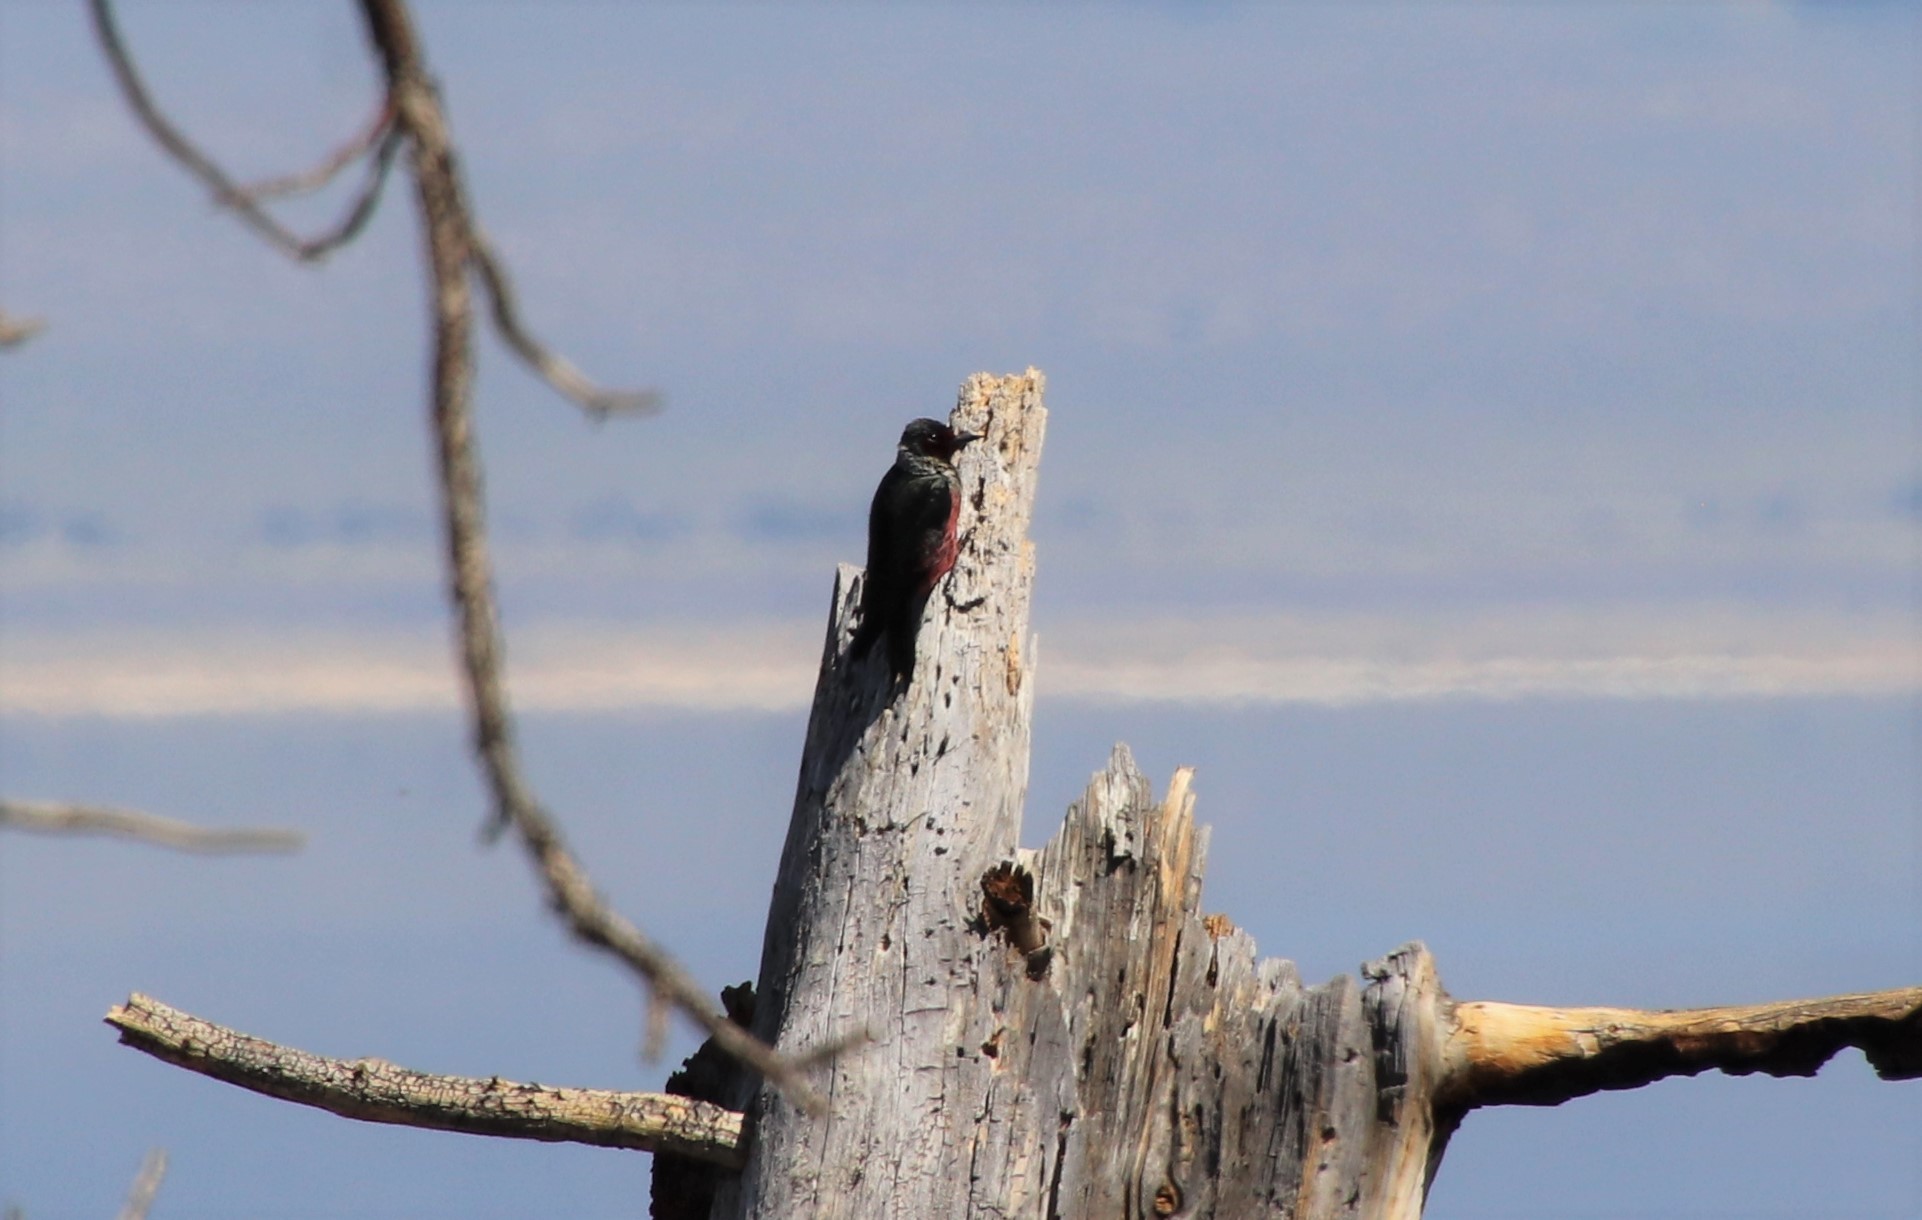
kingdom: Animalia
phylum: Chordata
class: Aves
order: Piciformes
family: Picidae
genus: Melanerpes
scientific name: Melanerpes lewis
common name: Lewis's woodpecker
